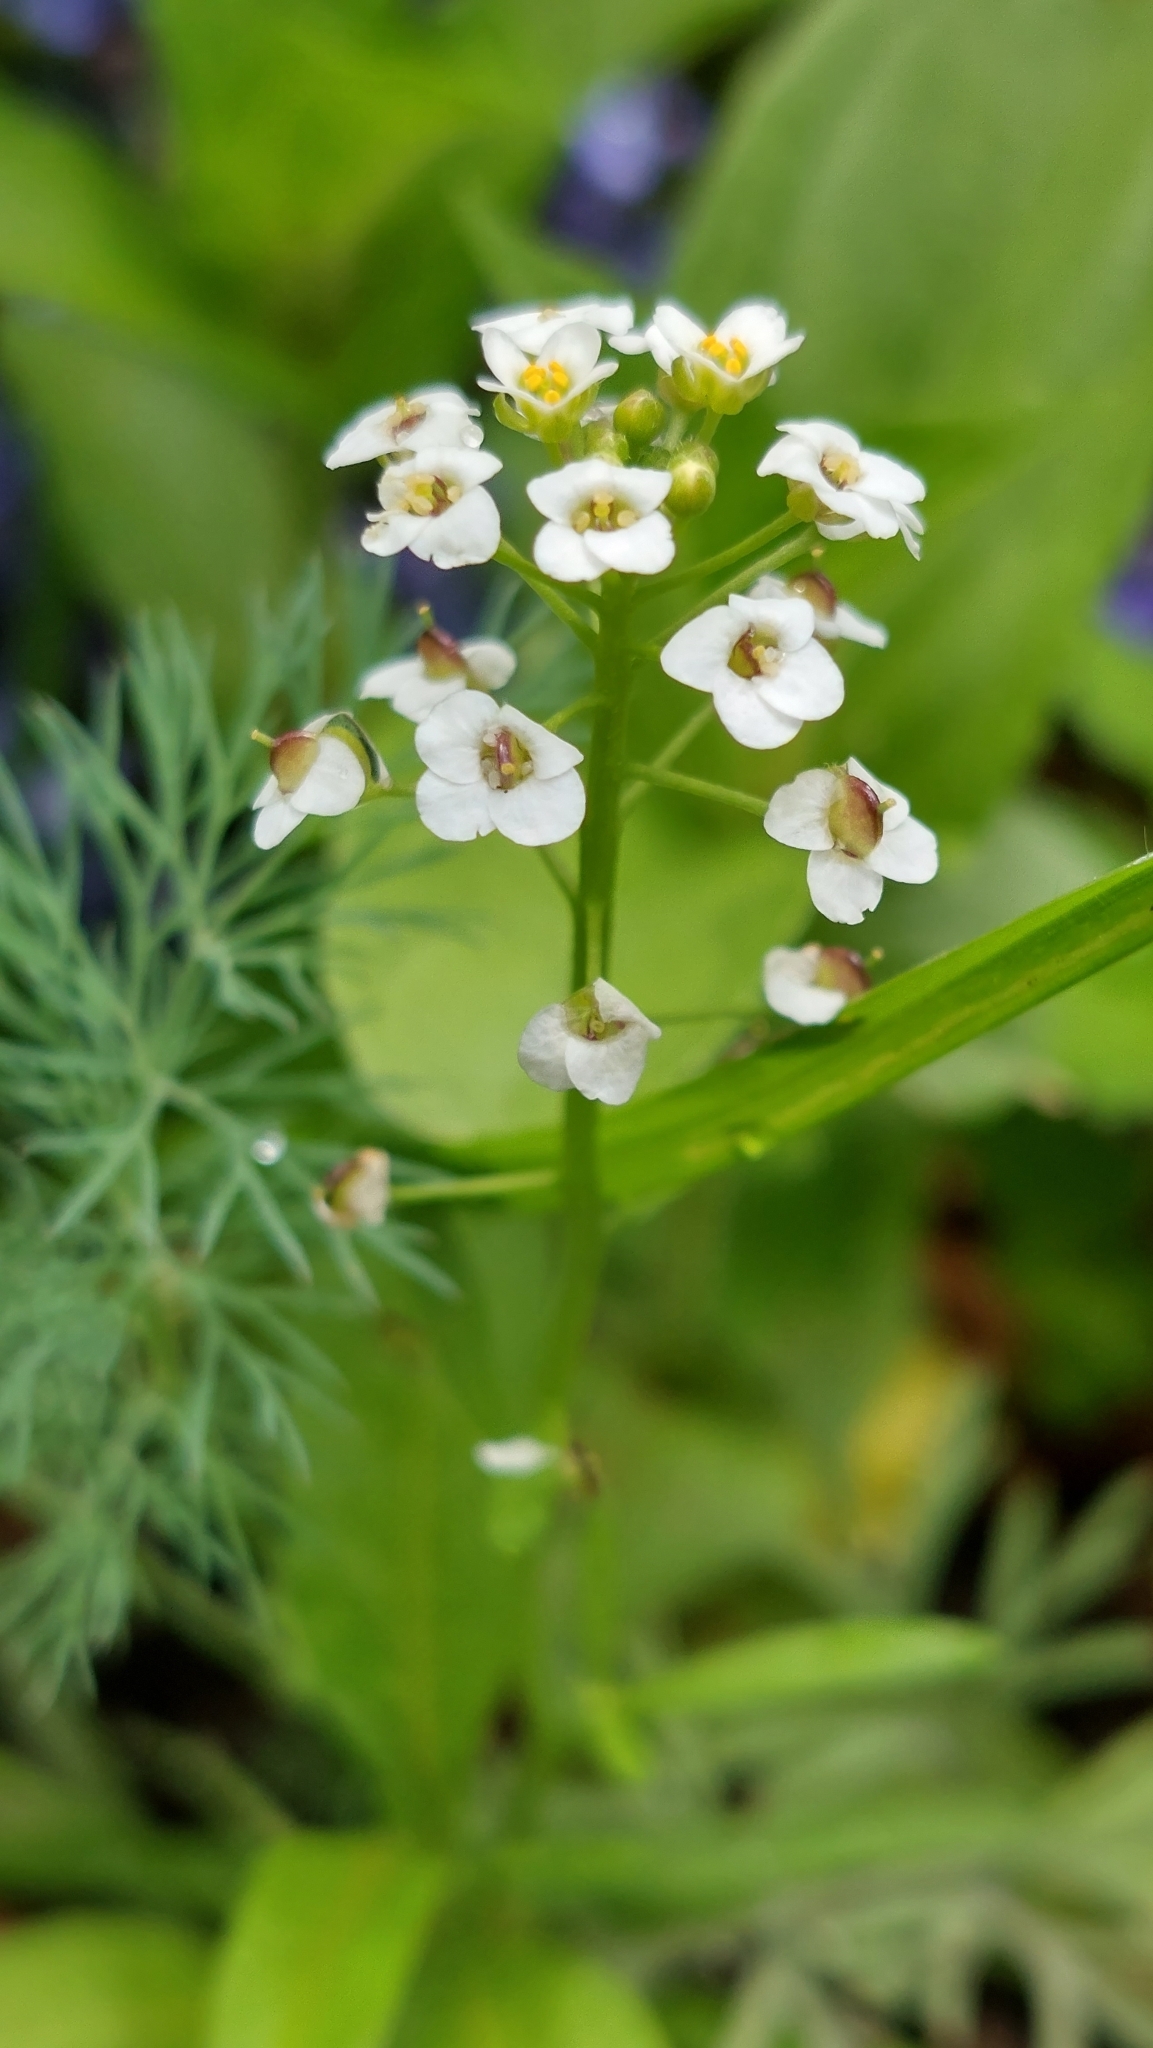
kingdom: Plantae
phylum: Tracheophyta
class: Magnoliopsida
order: Brassicales
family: Brassicaceae
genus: Lobularia
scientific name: Lobularia maritima
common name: Sweet alison
